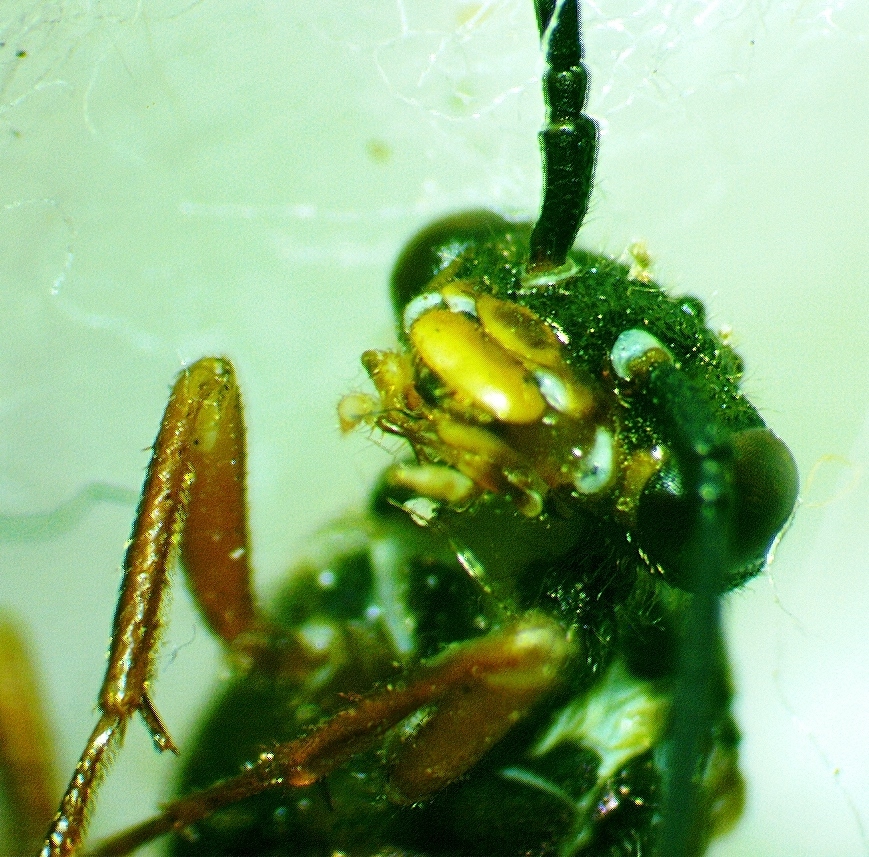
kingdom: Animalia
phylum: Arthropoda
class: Insecta
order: Hymenoptera
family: Xyelidae
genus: Macroxyela
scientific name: Macroxyela
